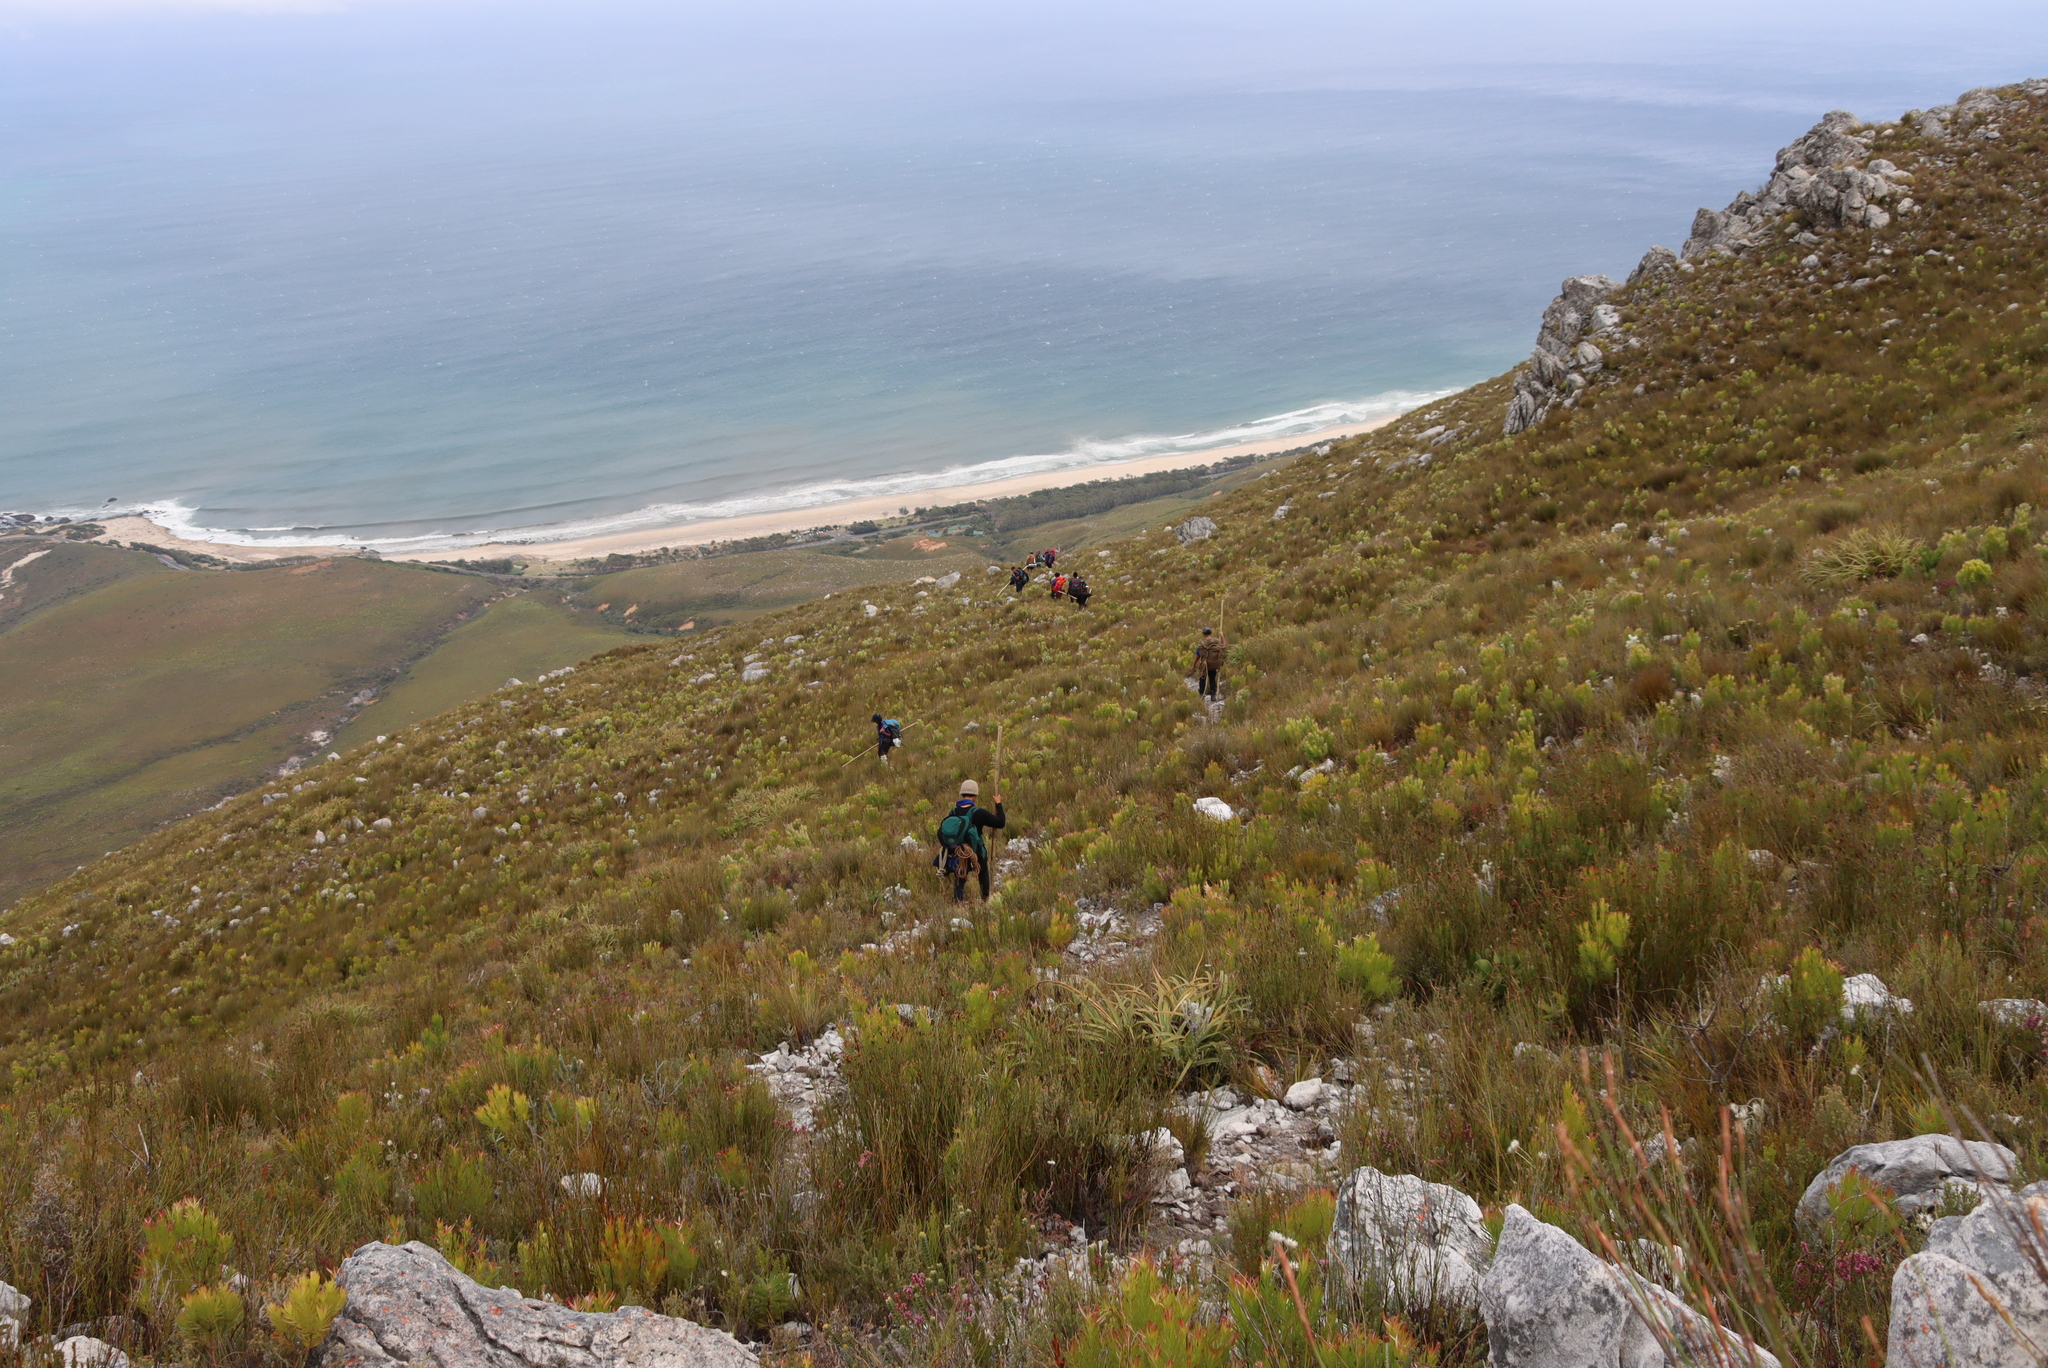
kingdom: Plantae
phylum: Tracheophyta
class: Liliopsida
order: Poales
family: Cyperaceae
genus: Tetraria
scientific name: Tetraria thermalis
